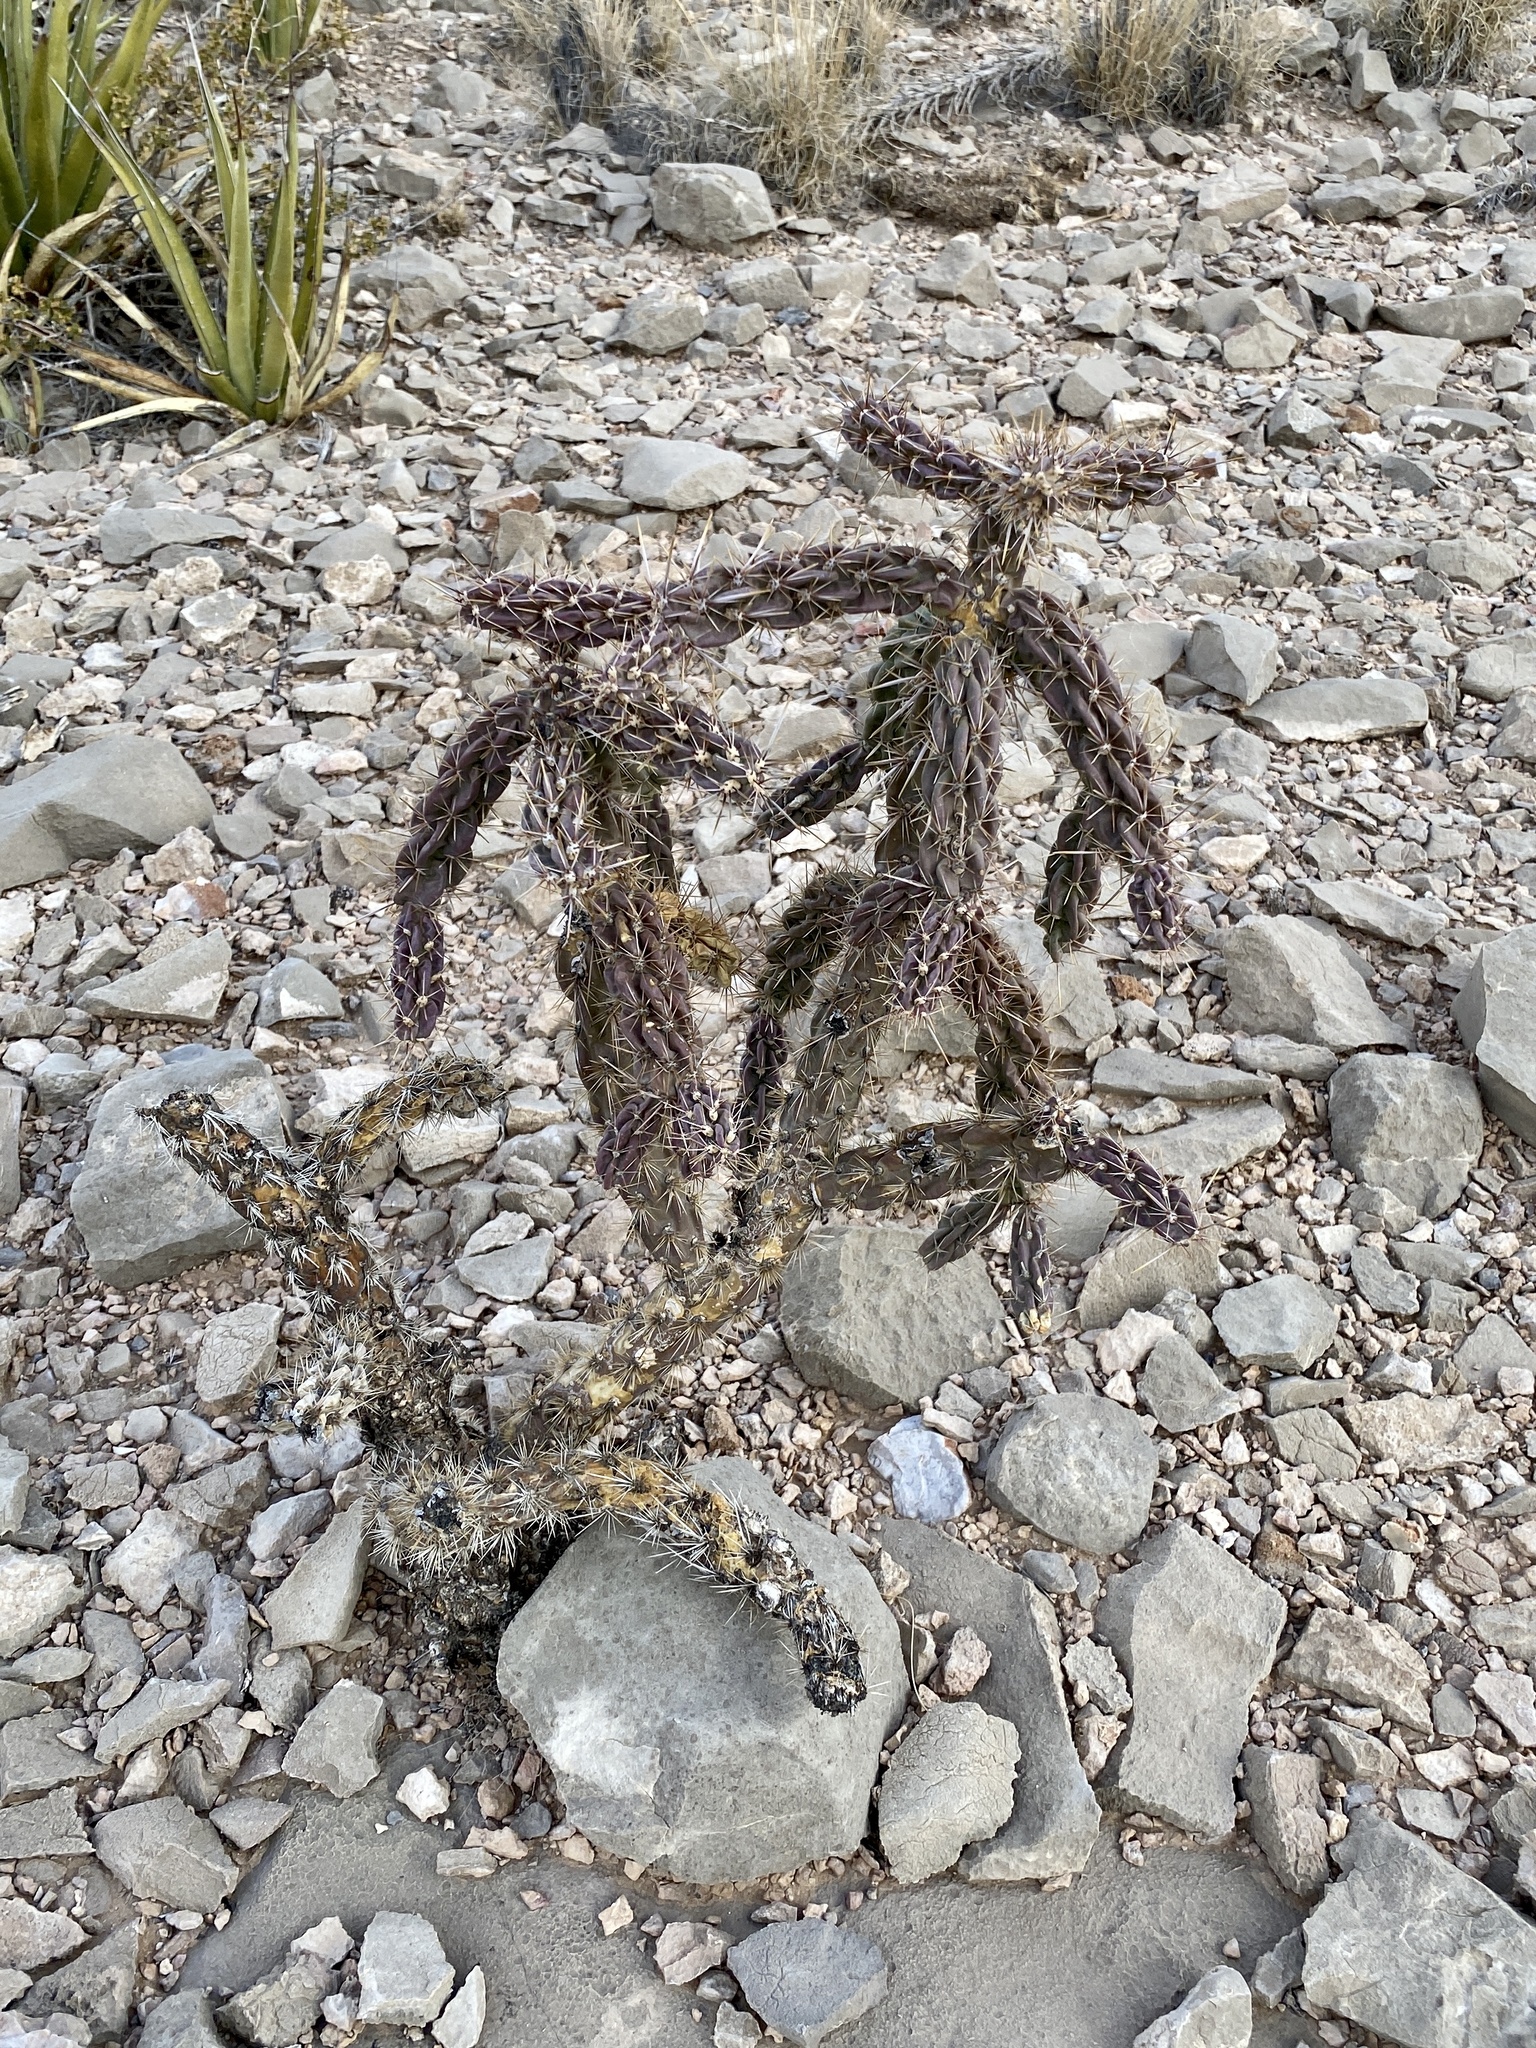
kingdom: Plantae
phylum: Tracheophyta
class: Magnoliopsida
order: Caryophyllales
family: Cactaceae
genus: Cylindropuntia
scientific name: Cylindropuntia imbricata
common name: Candelabrum cactus
